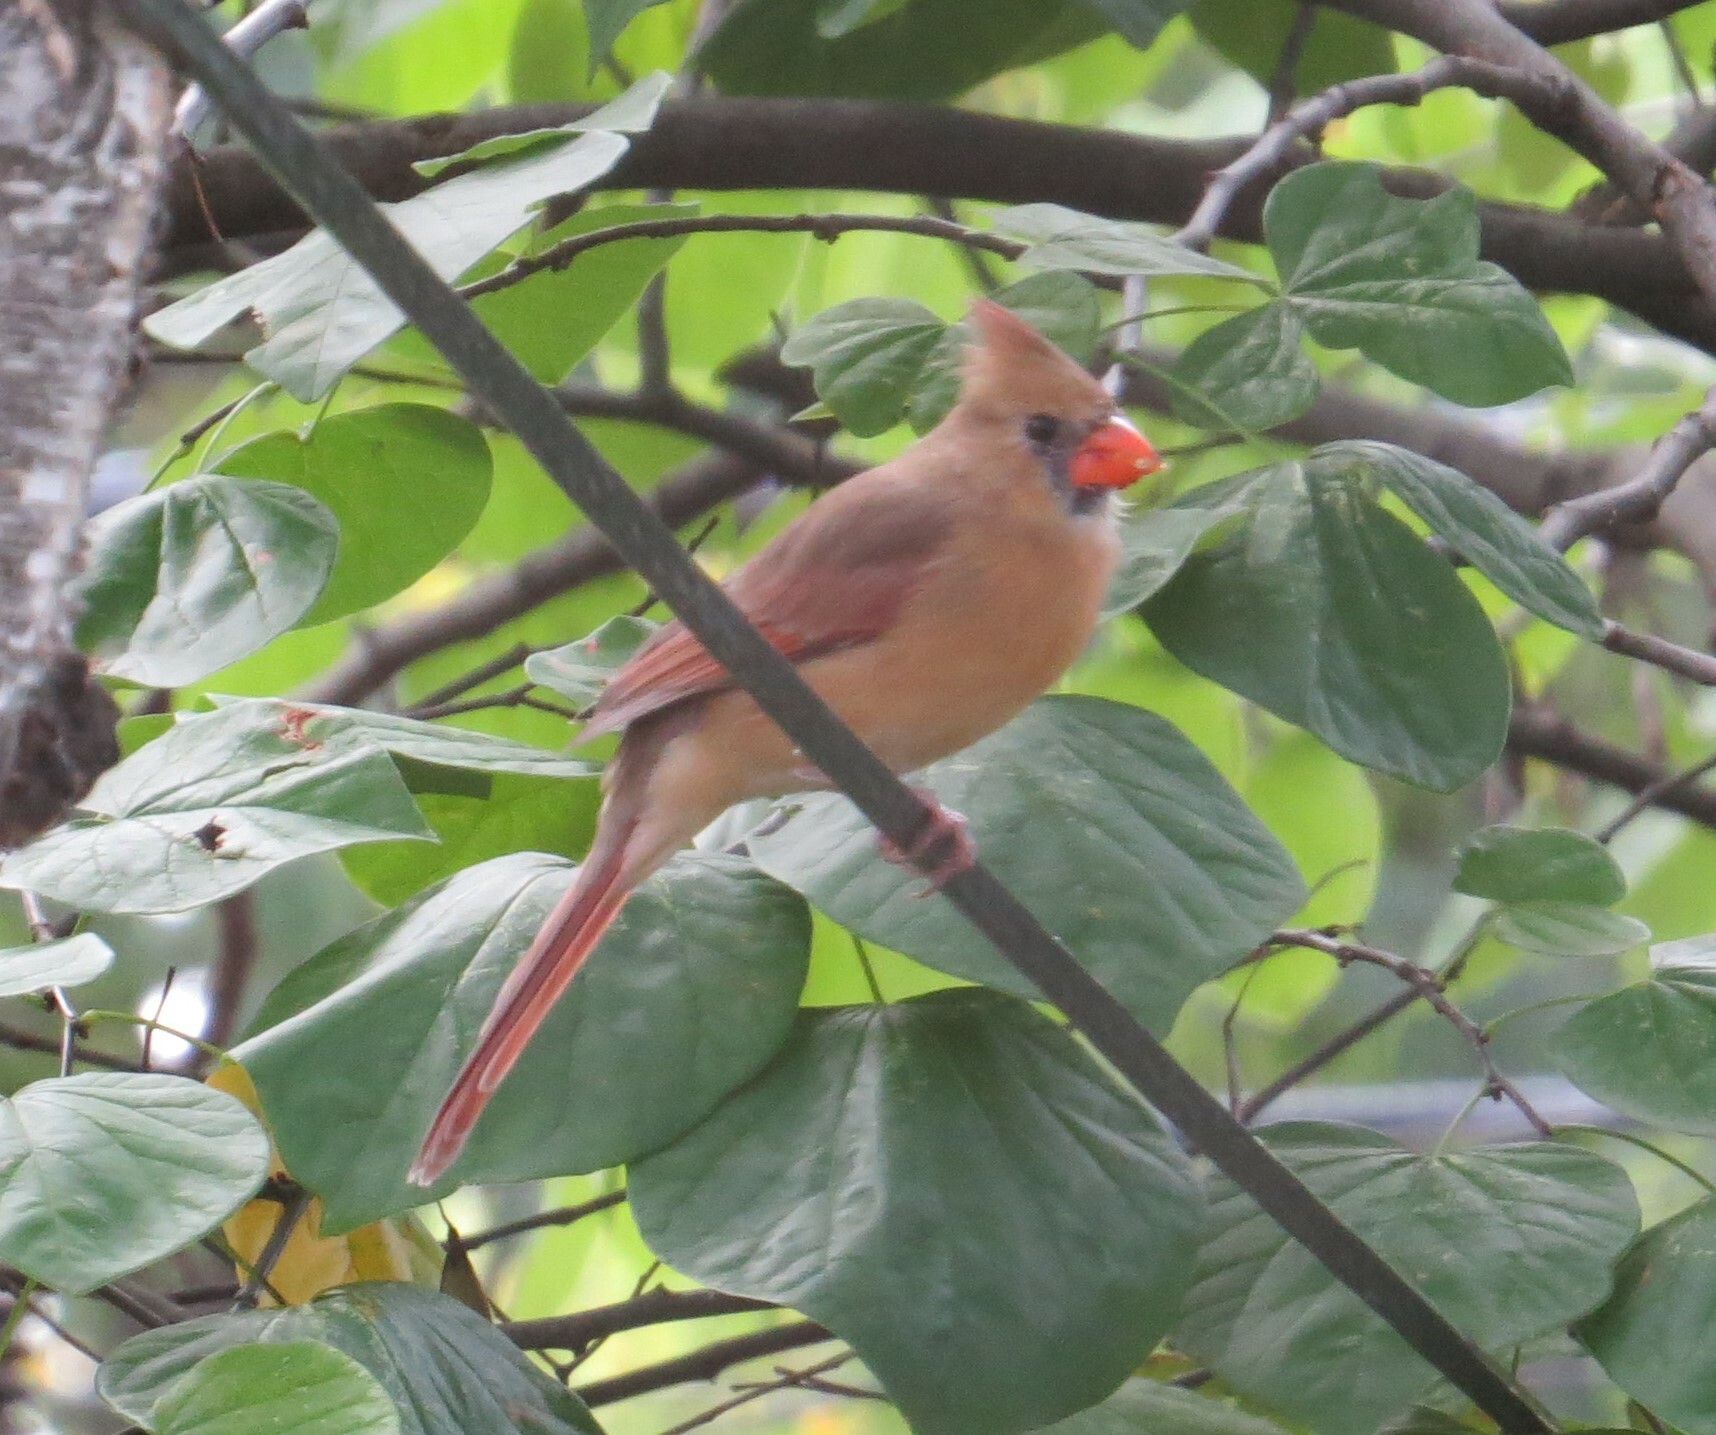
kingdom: Animalia
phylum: Chordata
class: Aves
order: Passeriformes
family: Cardinalidae
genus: Cardinalis
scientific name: Cardinalis cardinalis
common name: Northern cardinal
